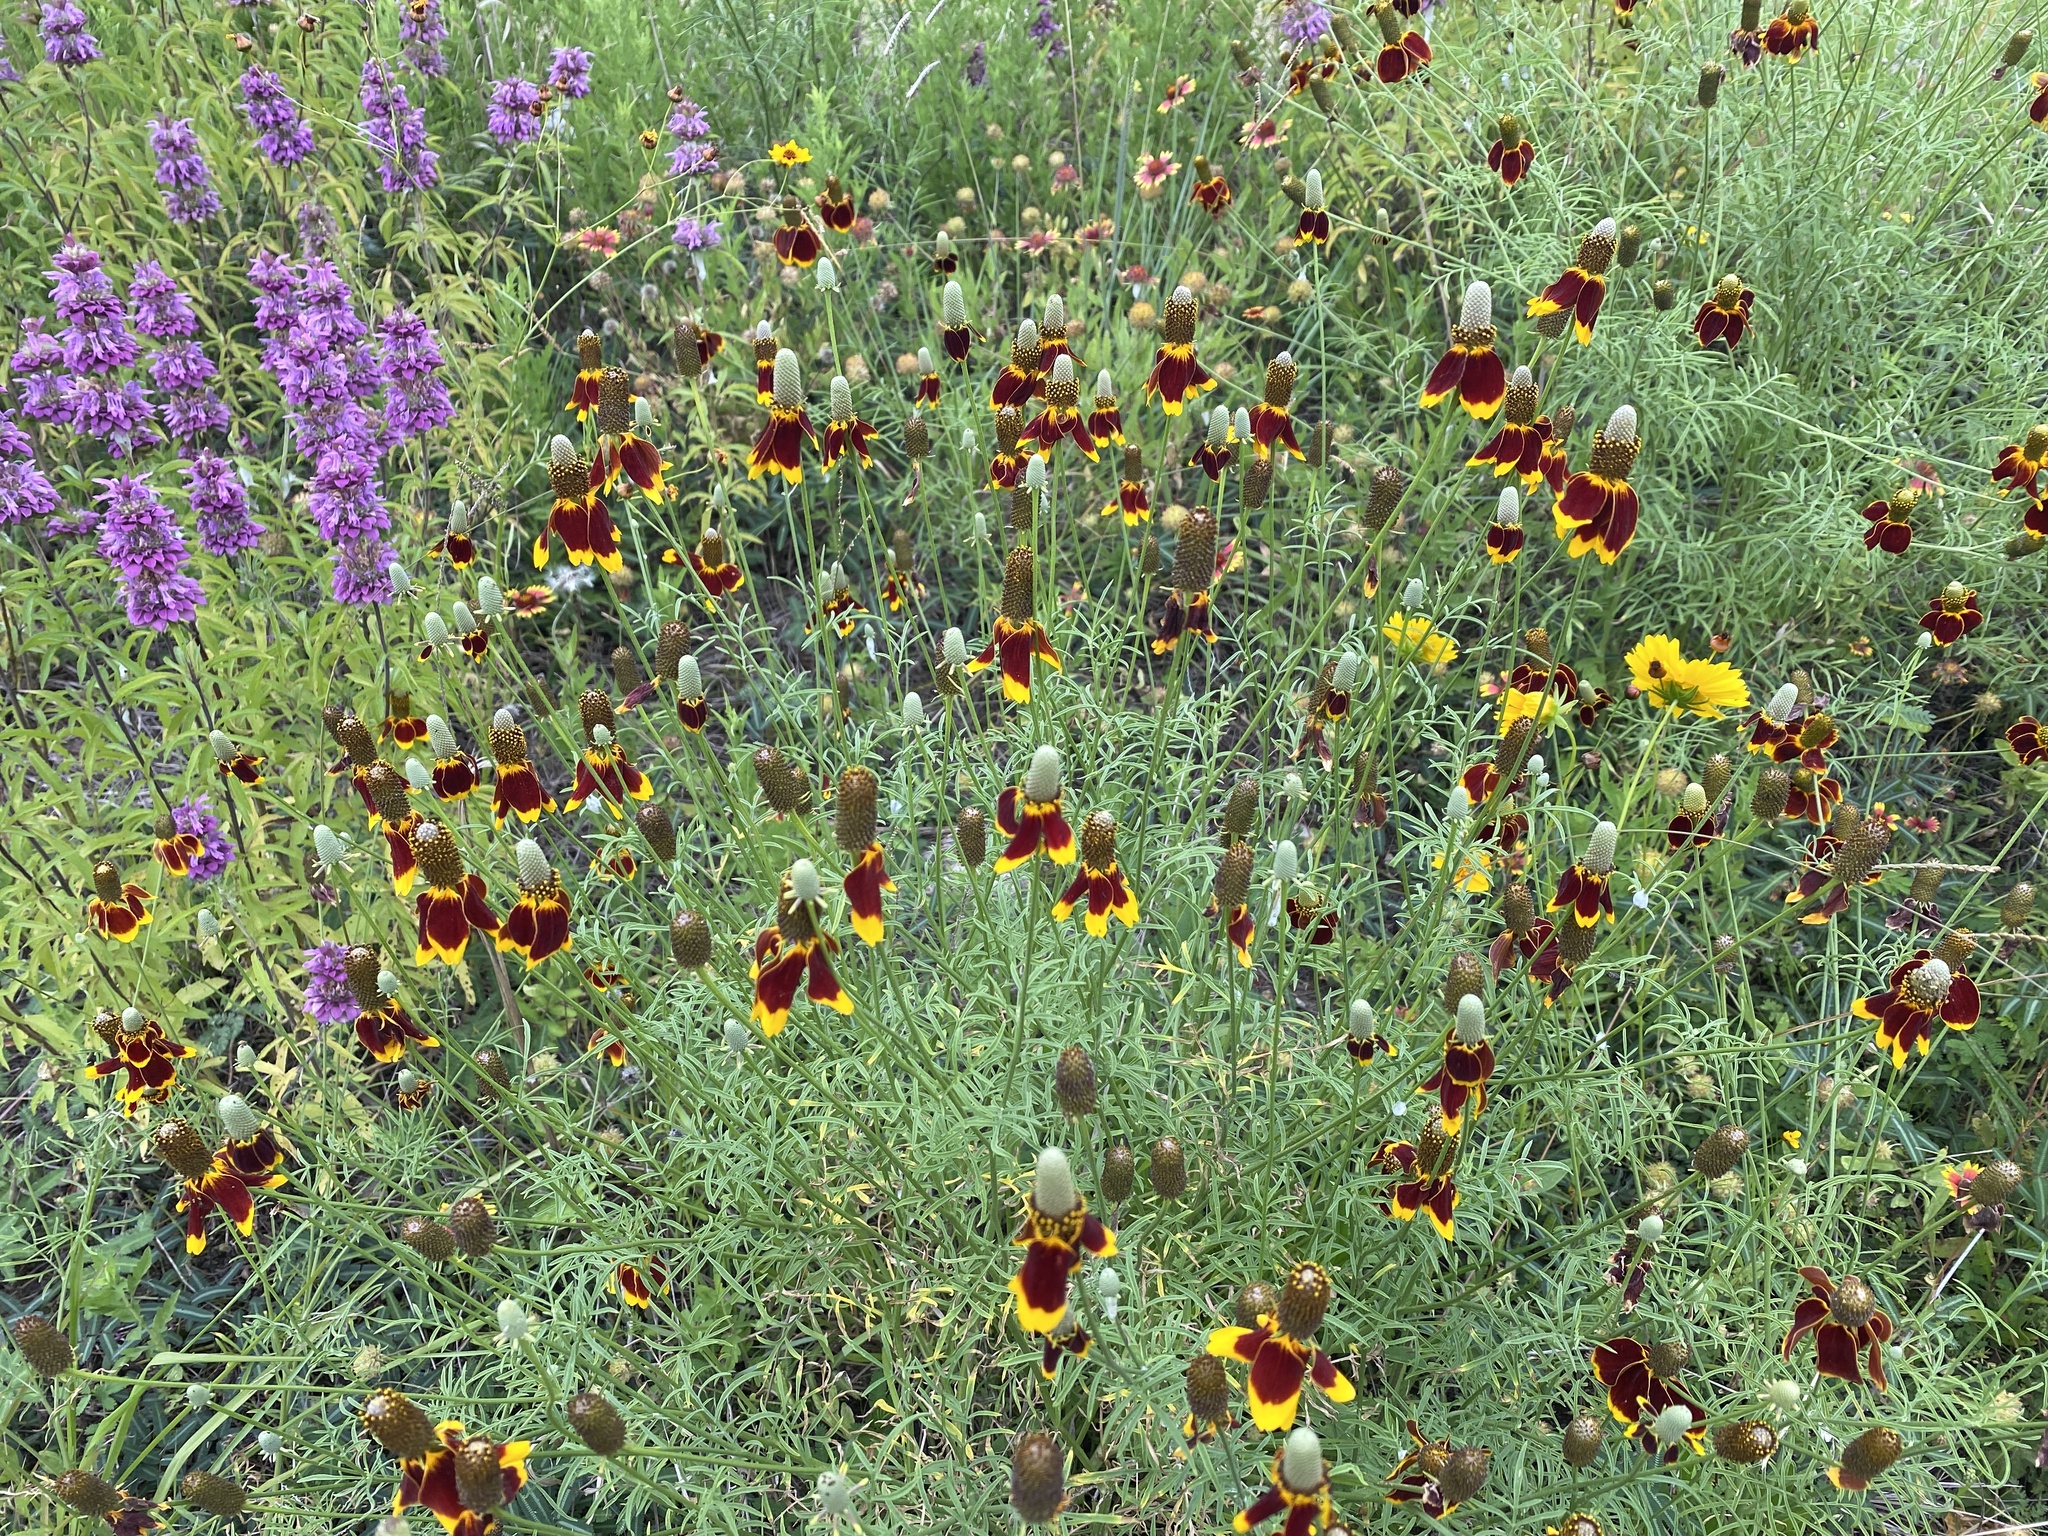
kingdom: Plantae
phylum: Tracheophyta
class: Magnoliopsida
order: Asterales
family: Asteraceae
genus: Ratibida
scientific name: Ratibida columnifera
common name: Prairie coneflower
